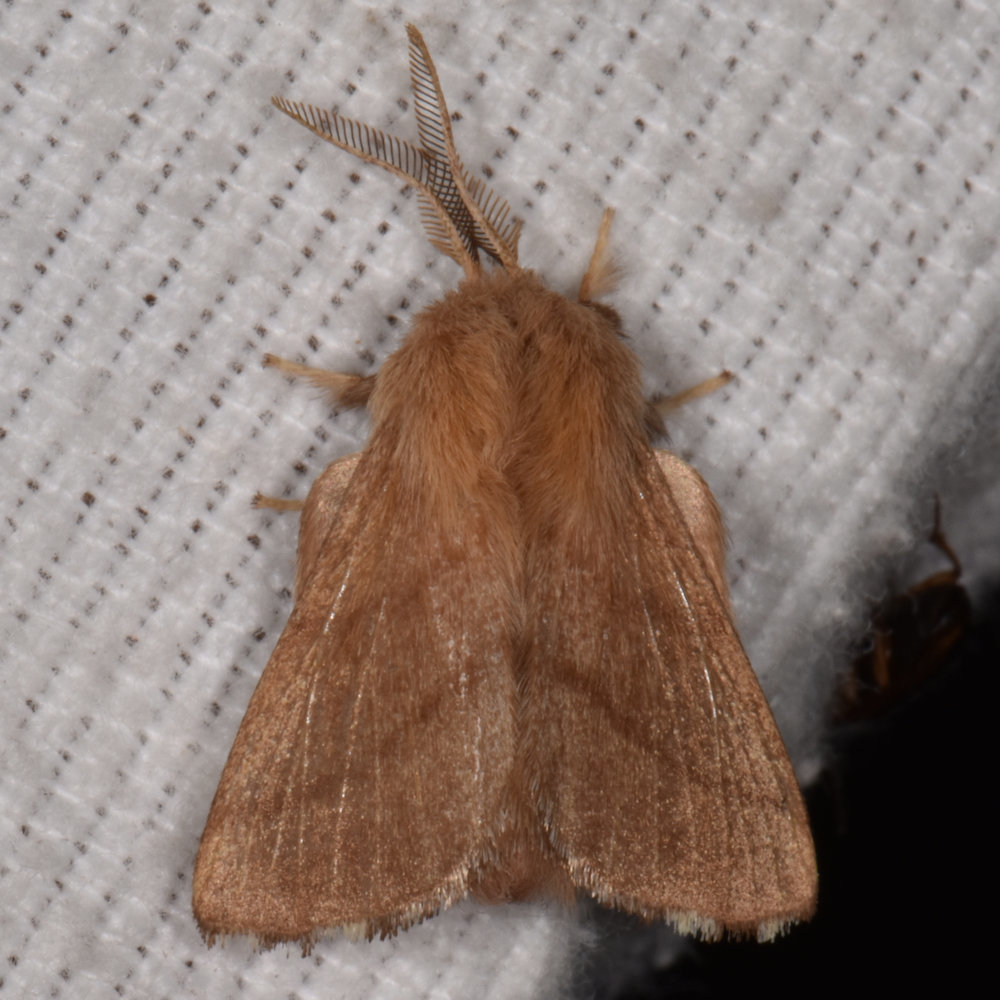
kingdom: Animalia
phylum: Arthropoda
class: Insecta
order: Lepidoptera
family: Lasiocampidae
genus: Malacosoma
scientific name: Malacosoma disstria
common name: Forest tent caterpillar
